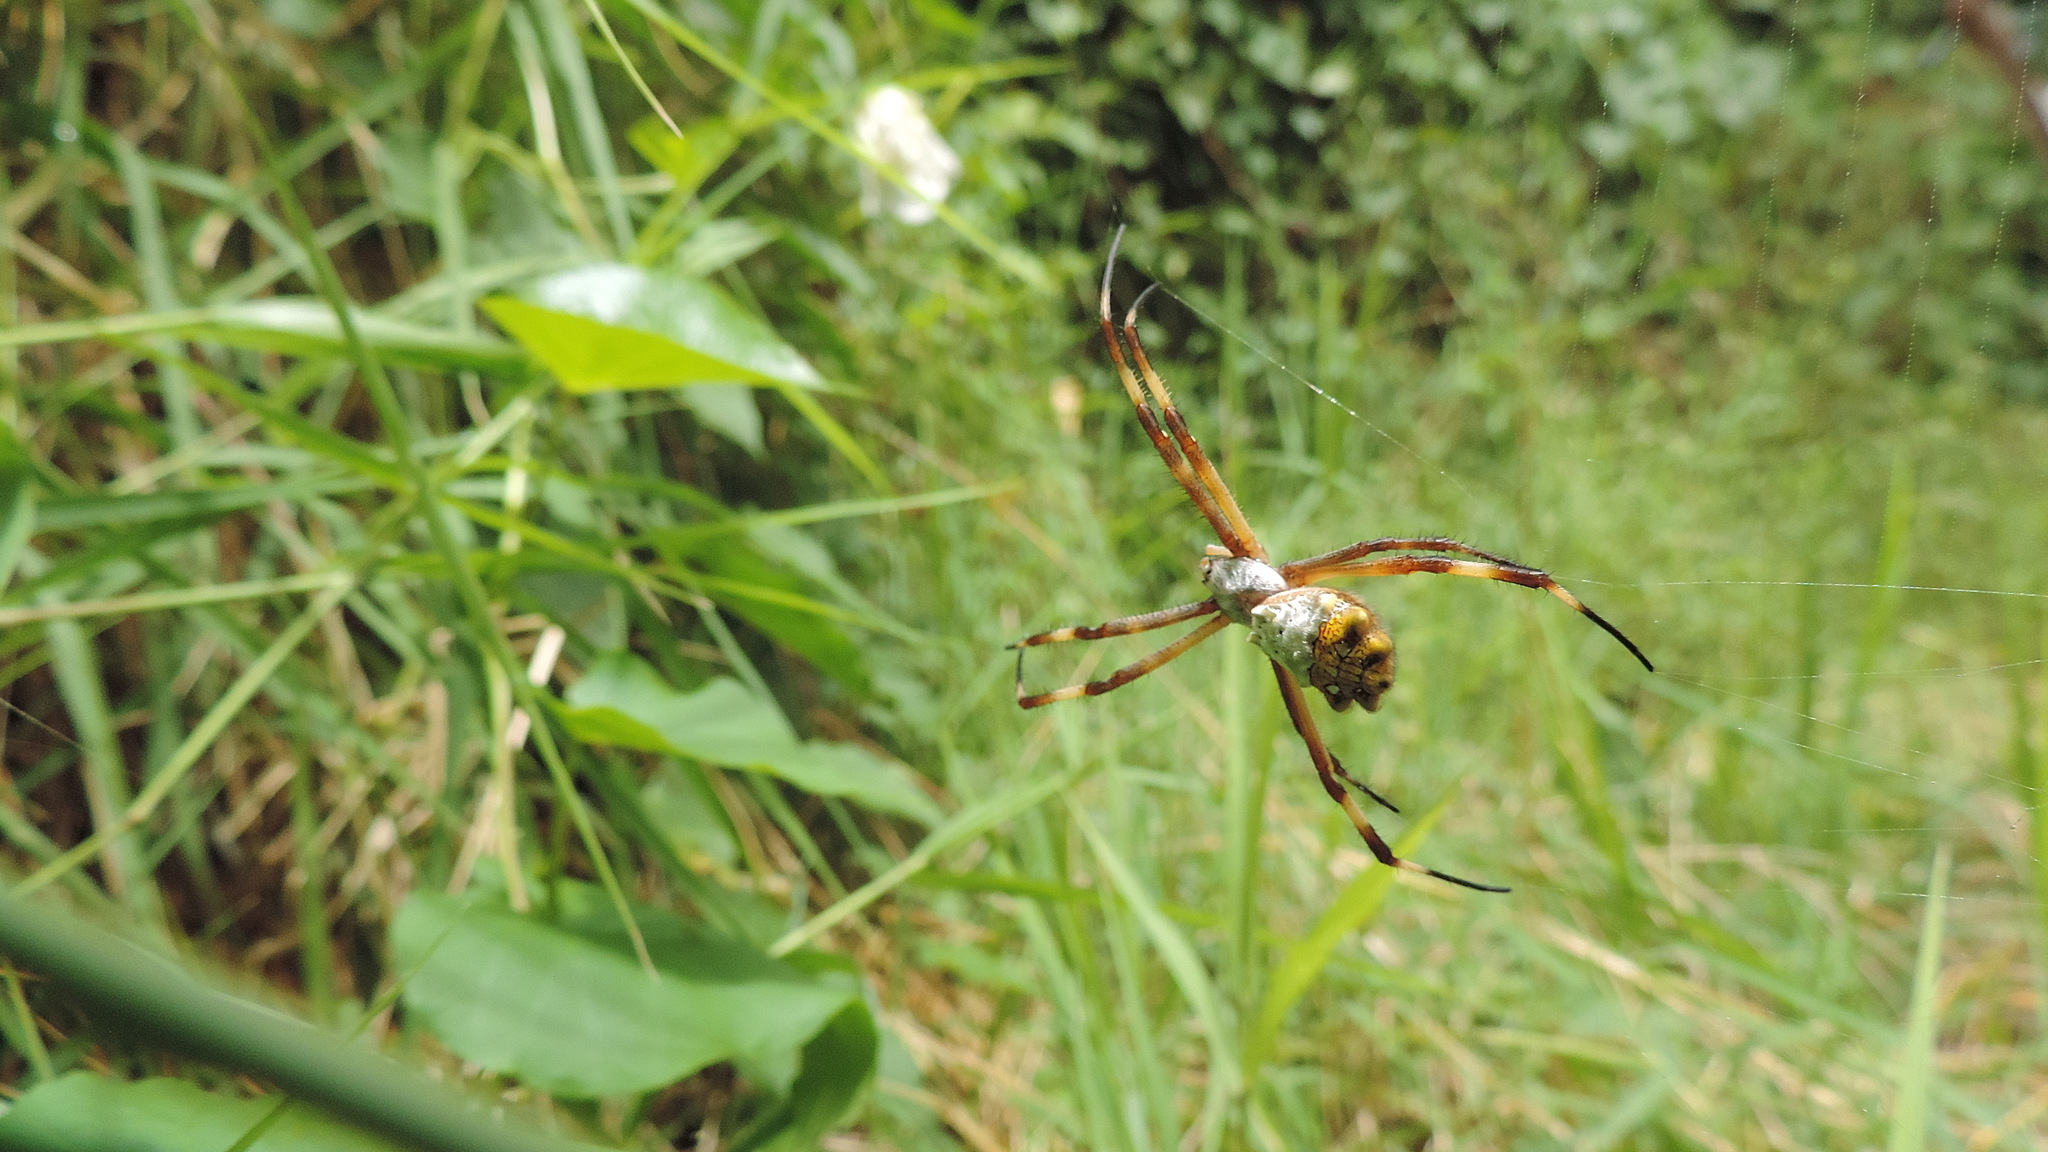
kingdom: Animalia
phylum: Arthropoda
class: Arachnida
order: Araneae
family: Araneidae
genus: Argiope
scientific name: Argiope argentata
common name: Orb weavers
